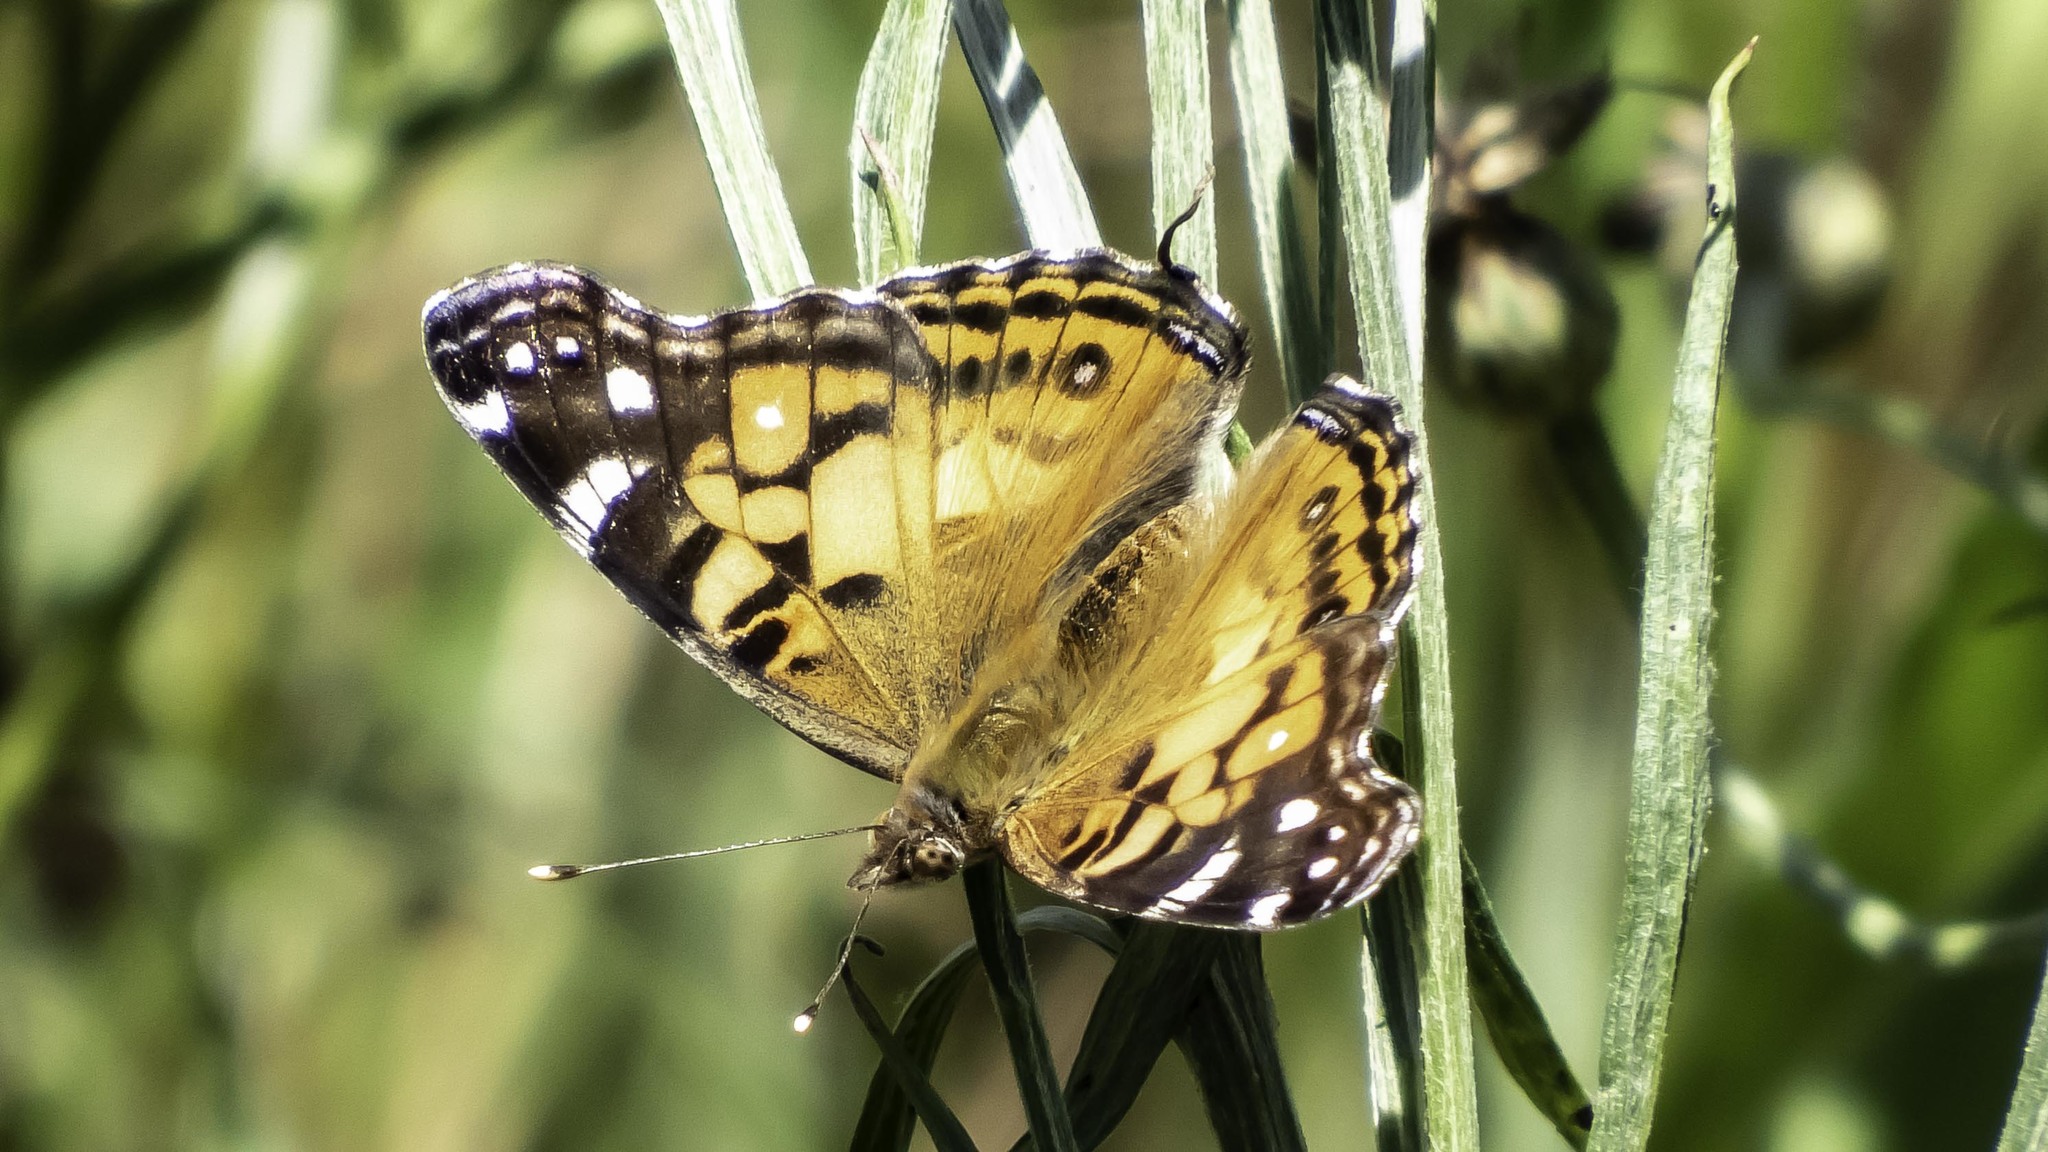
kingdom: Animalia
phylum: Arthropoda
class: Insecta
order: Lepidoptera
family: Nymphalidae
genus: Vanessa
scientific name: Vanessa virginiensis
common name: American lady
